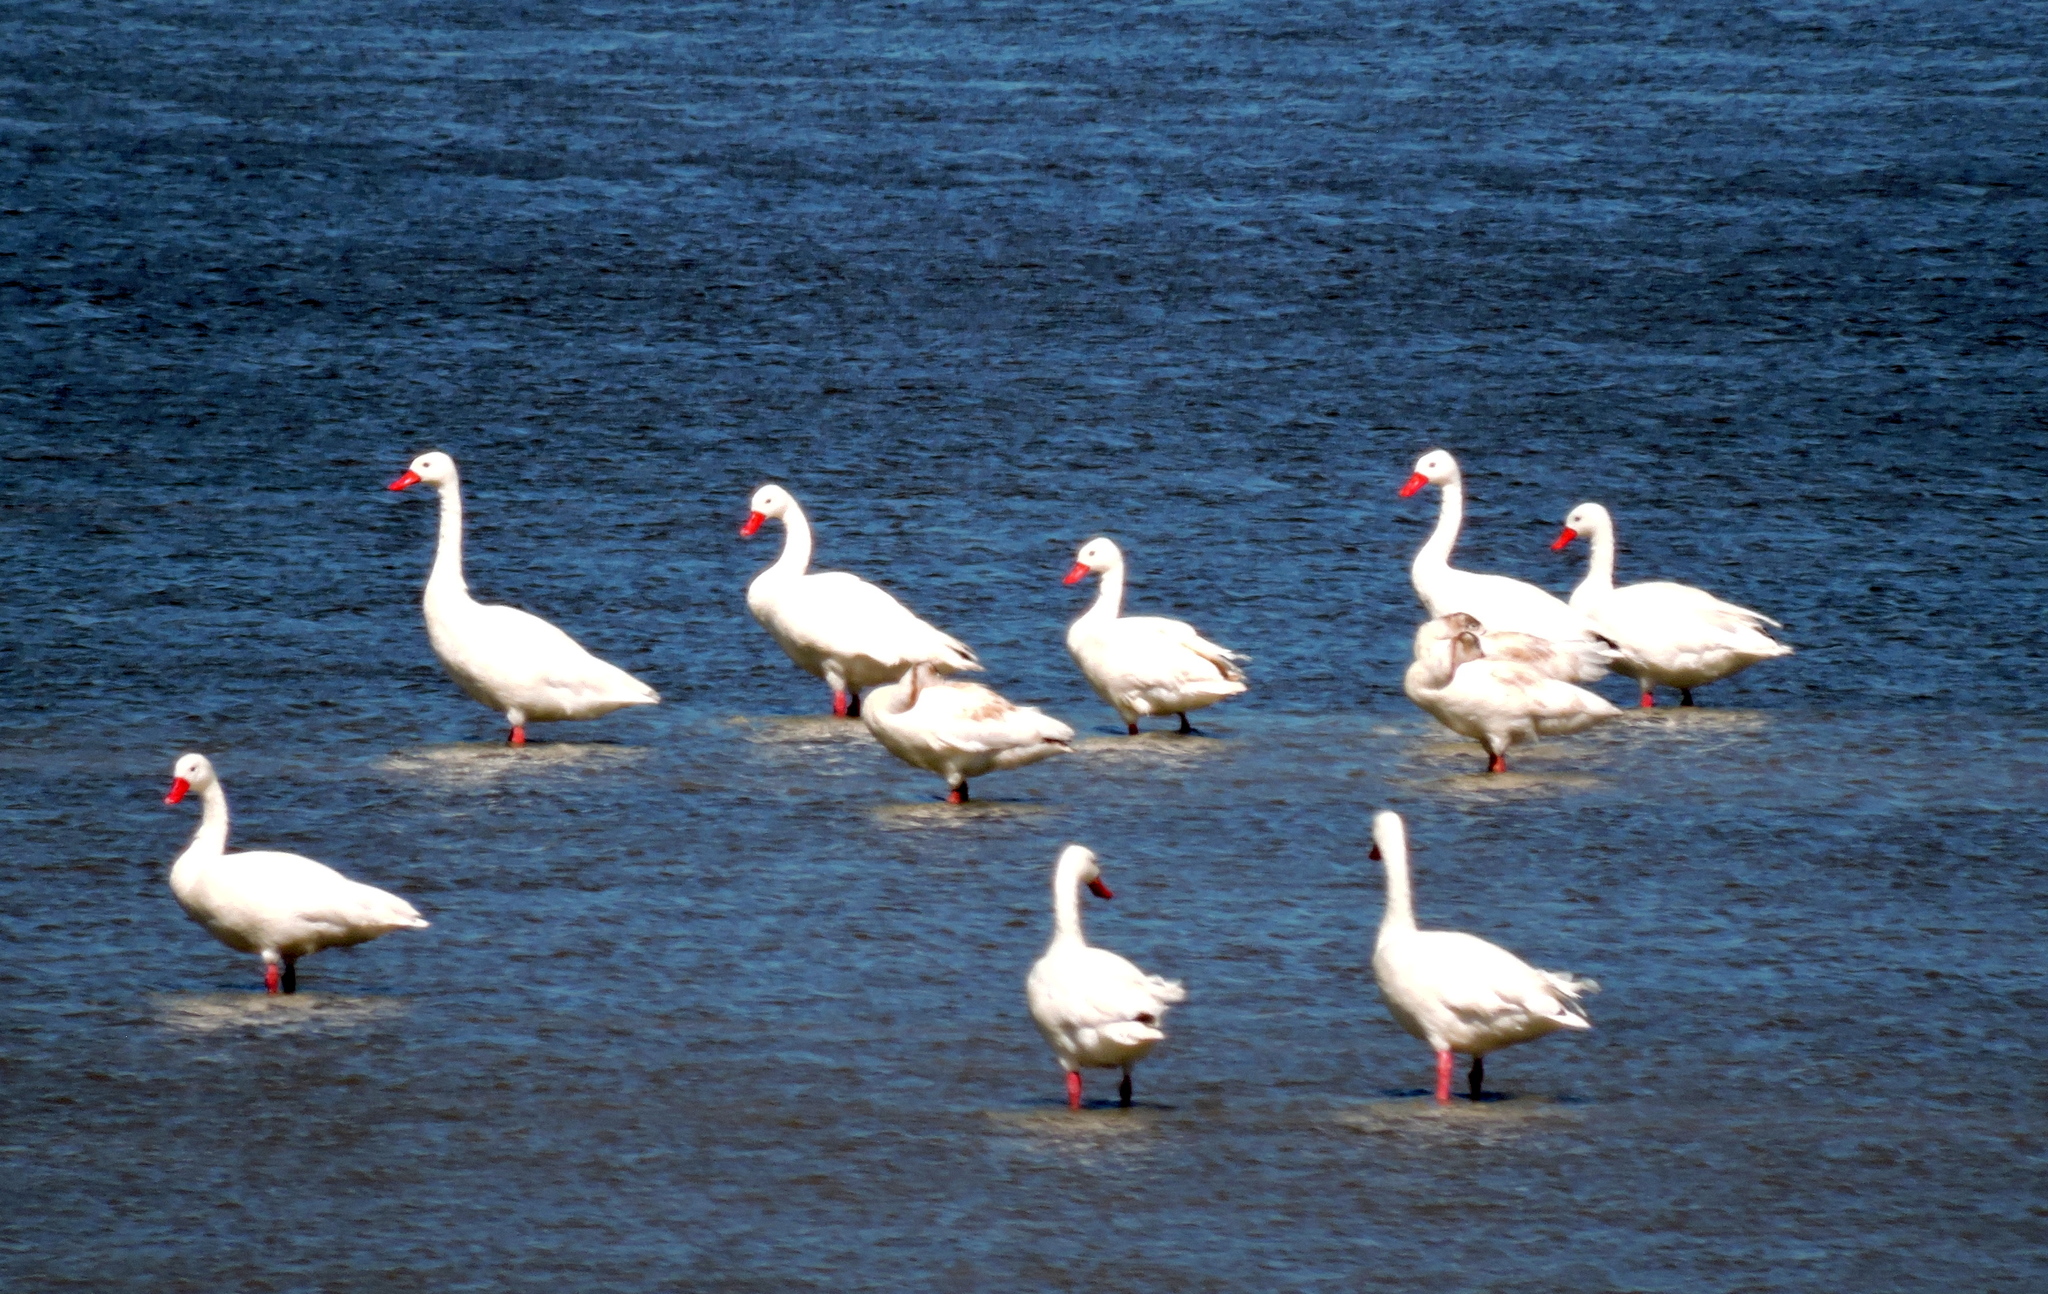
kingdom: Animalia
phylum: Chordata
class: Aves
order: Anseriformes
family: Anatidae
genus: Coscoroba
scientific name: Coscoroba coscoroba
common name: Coscoroba swan
